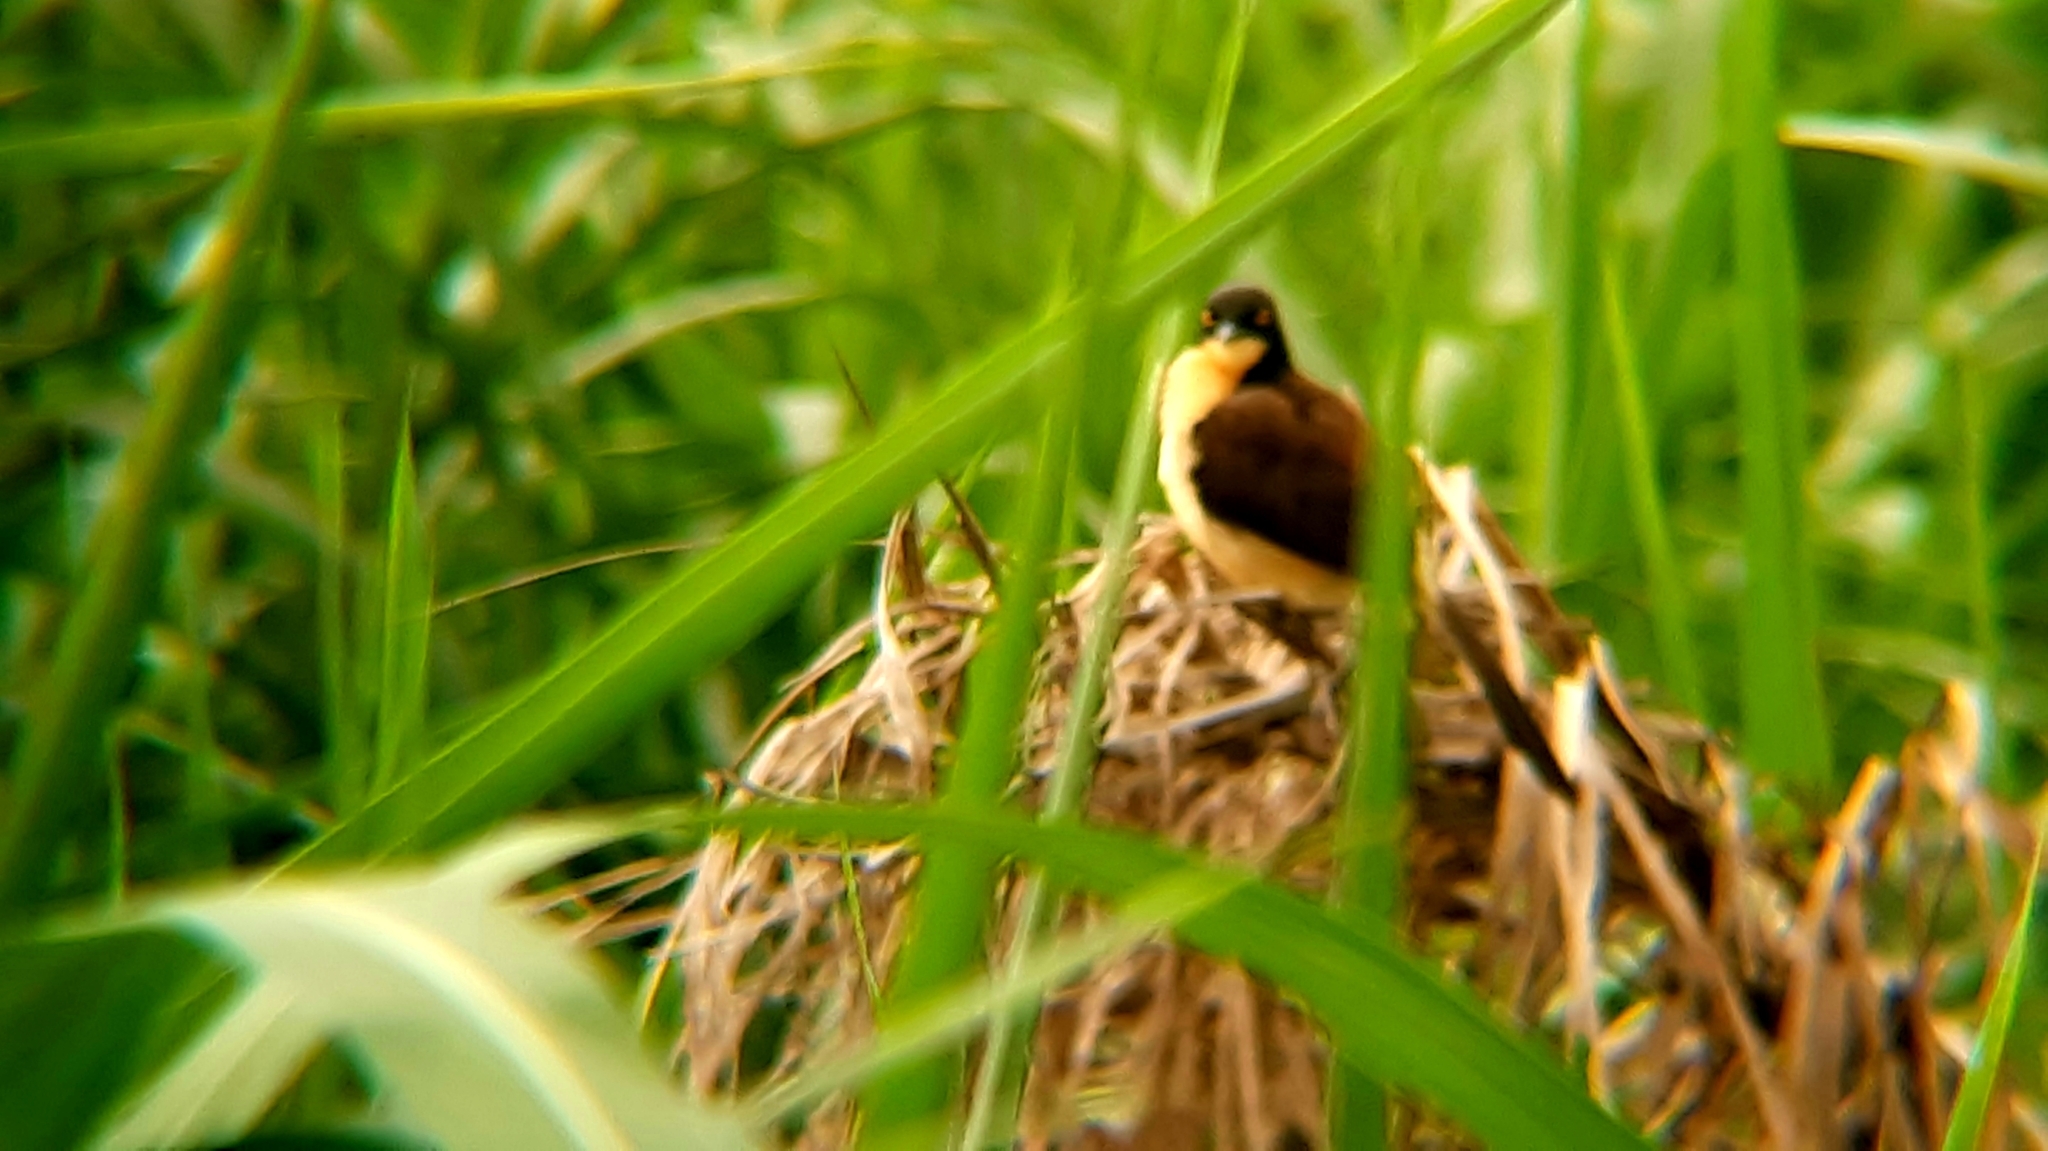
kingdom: Animalia
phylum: Chordata
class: Aves
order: Passeriformes
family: Donacobiidae
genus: Donacobius
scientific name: Donacobius atricapilla
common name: Black-capped donacobius
